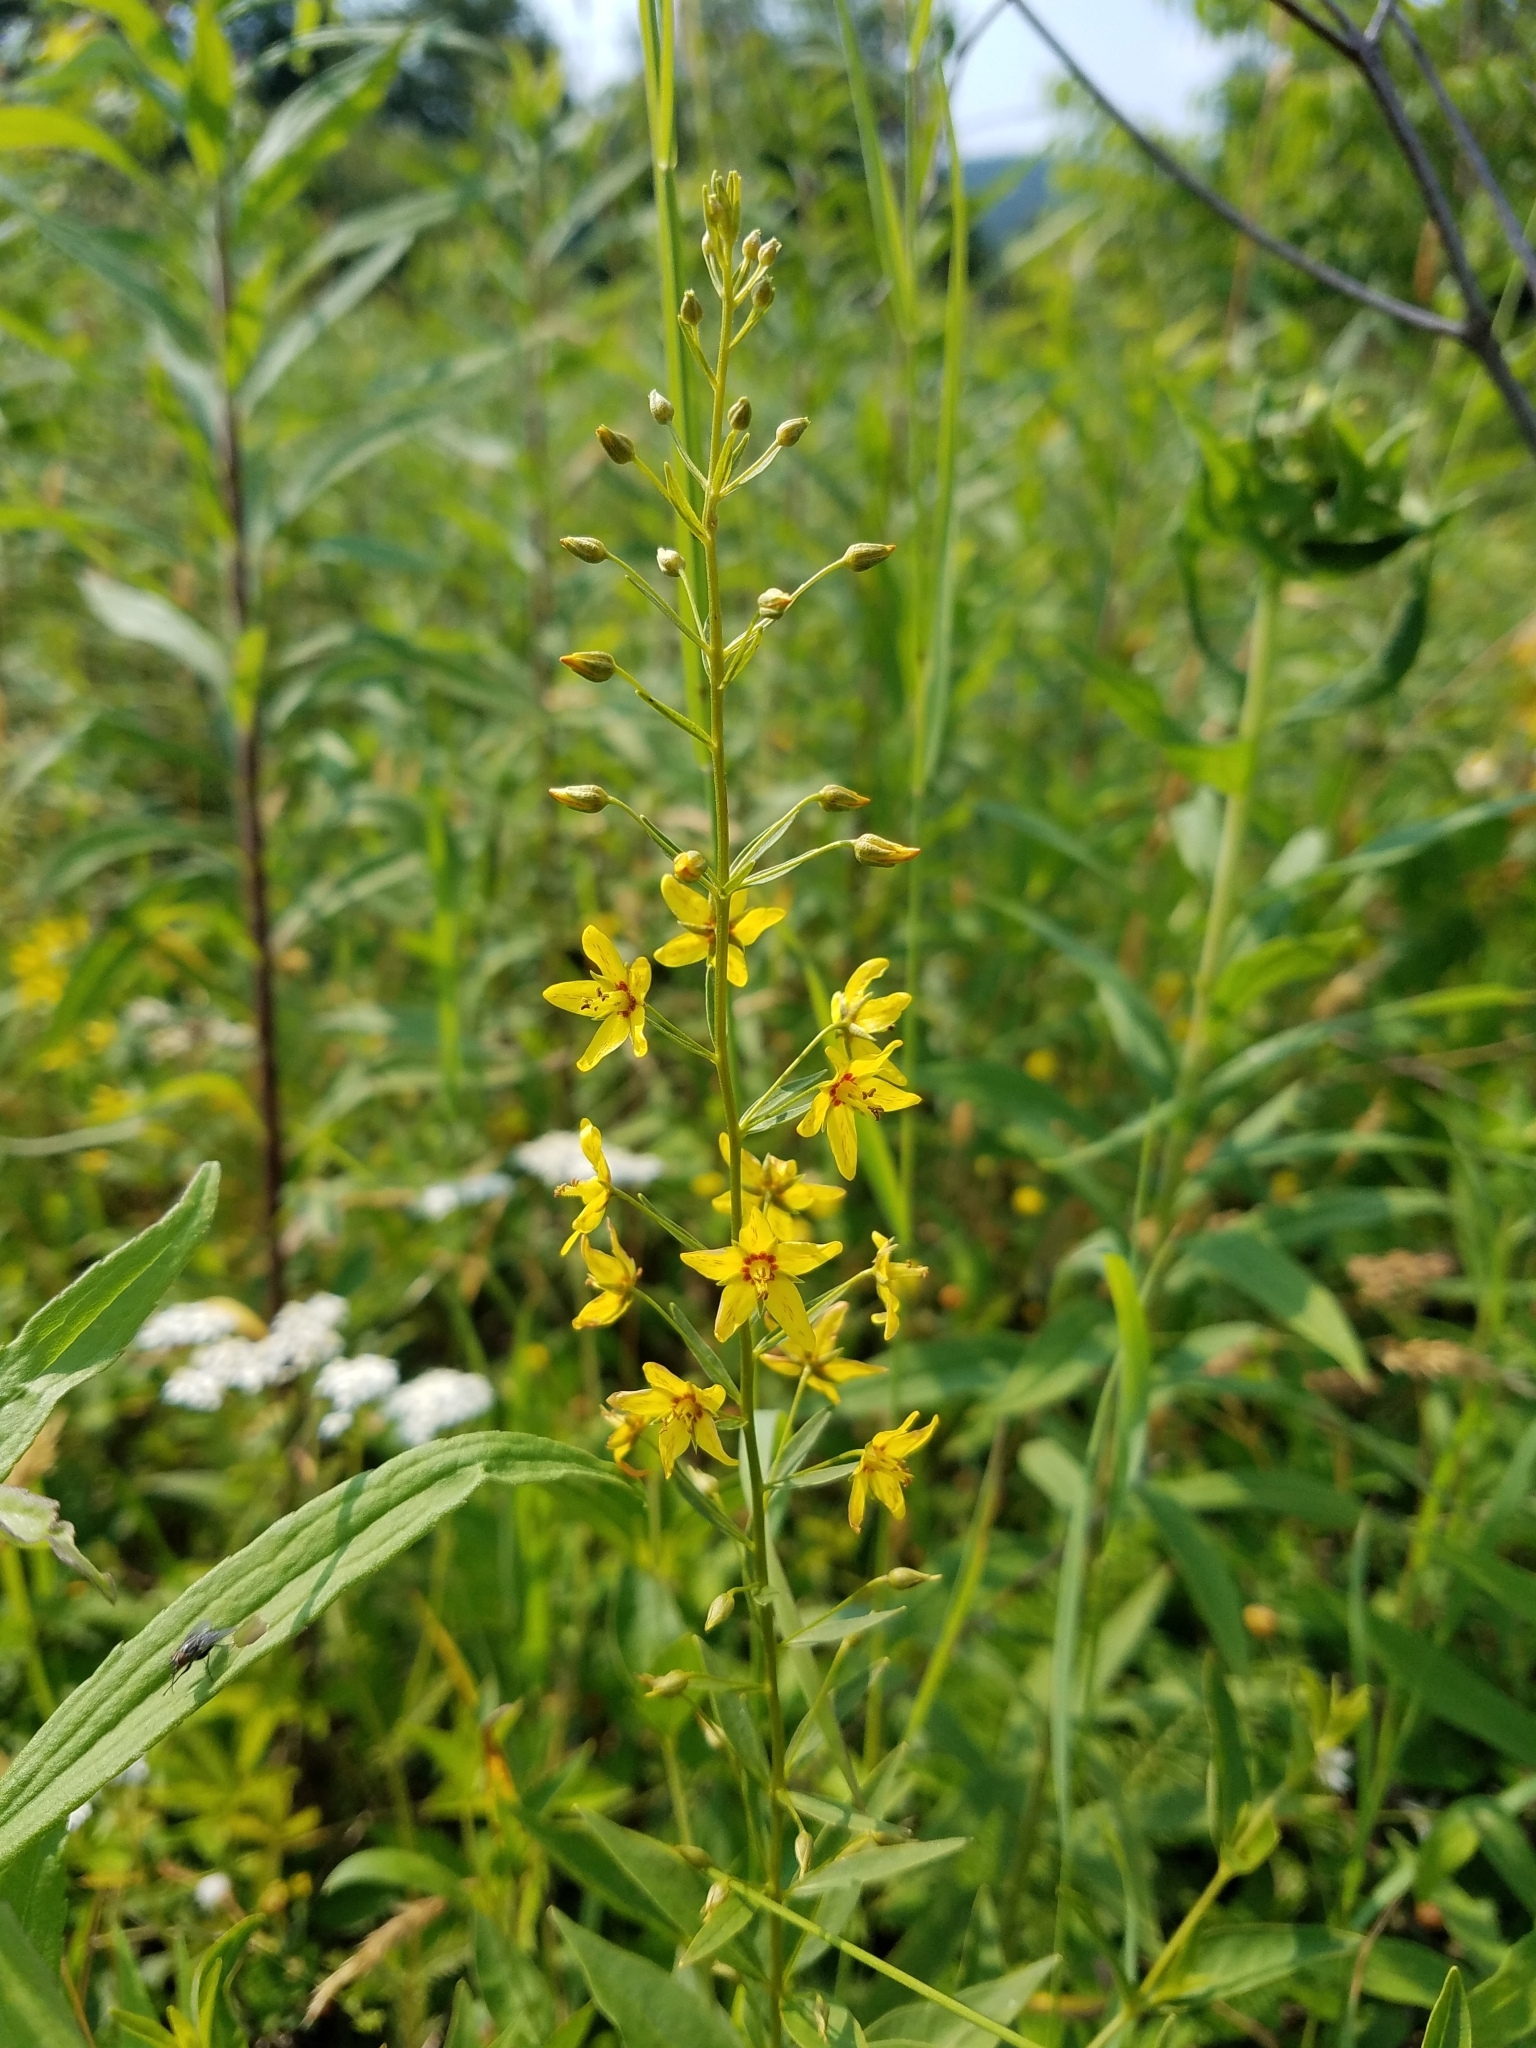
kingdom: Plantae
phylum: Tracheophyta
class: Magnoliopsida
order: Ericales
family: Primulaceae
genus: Lysimachia
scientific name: Lysimachia terrestris
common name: Lake loosestrife
